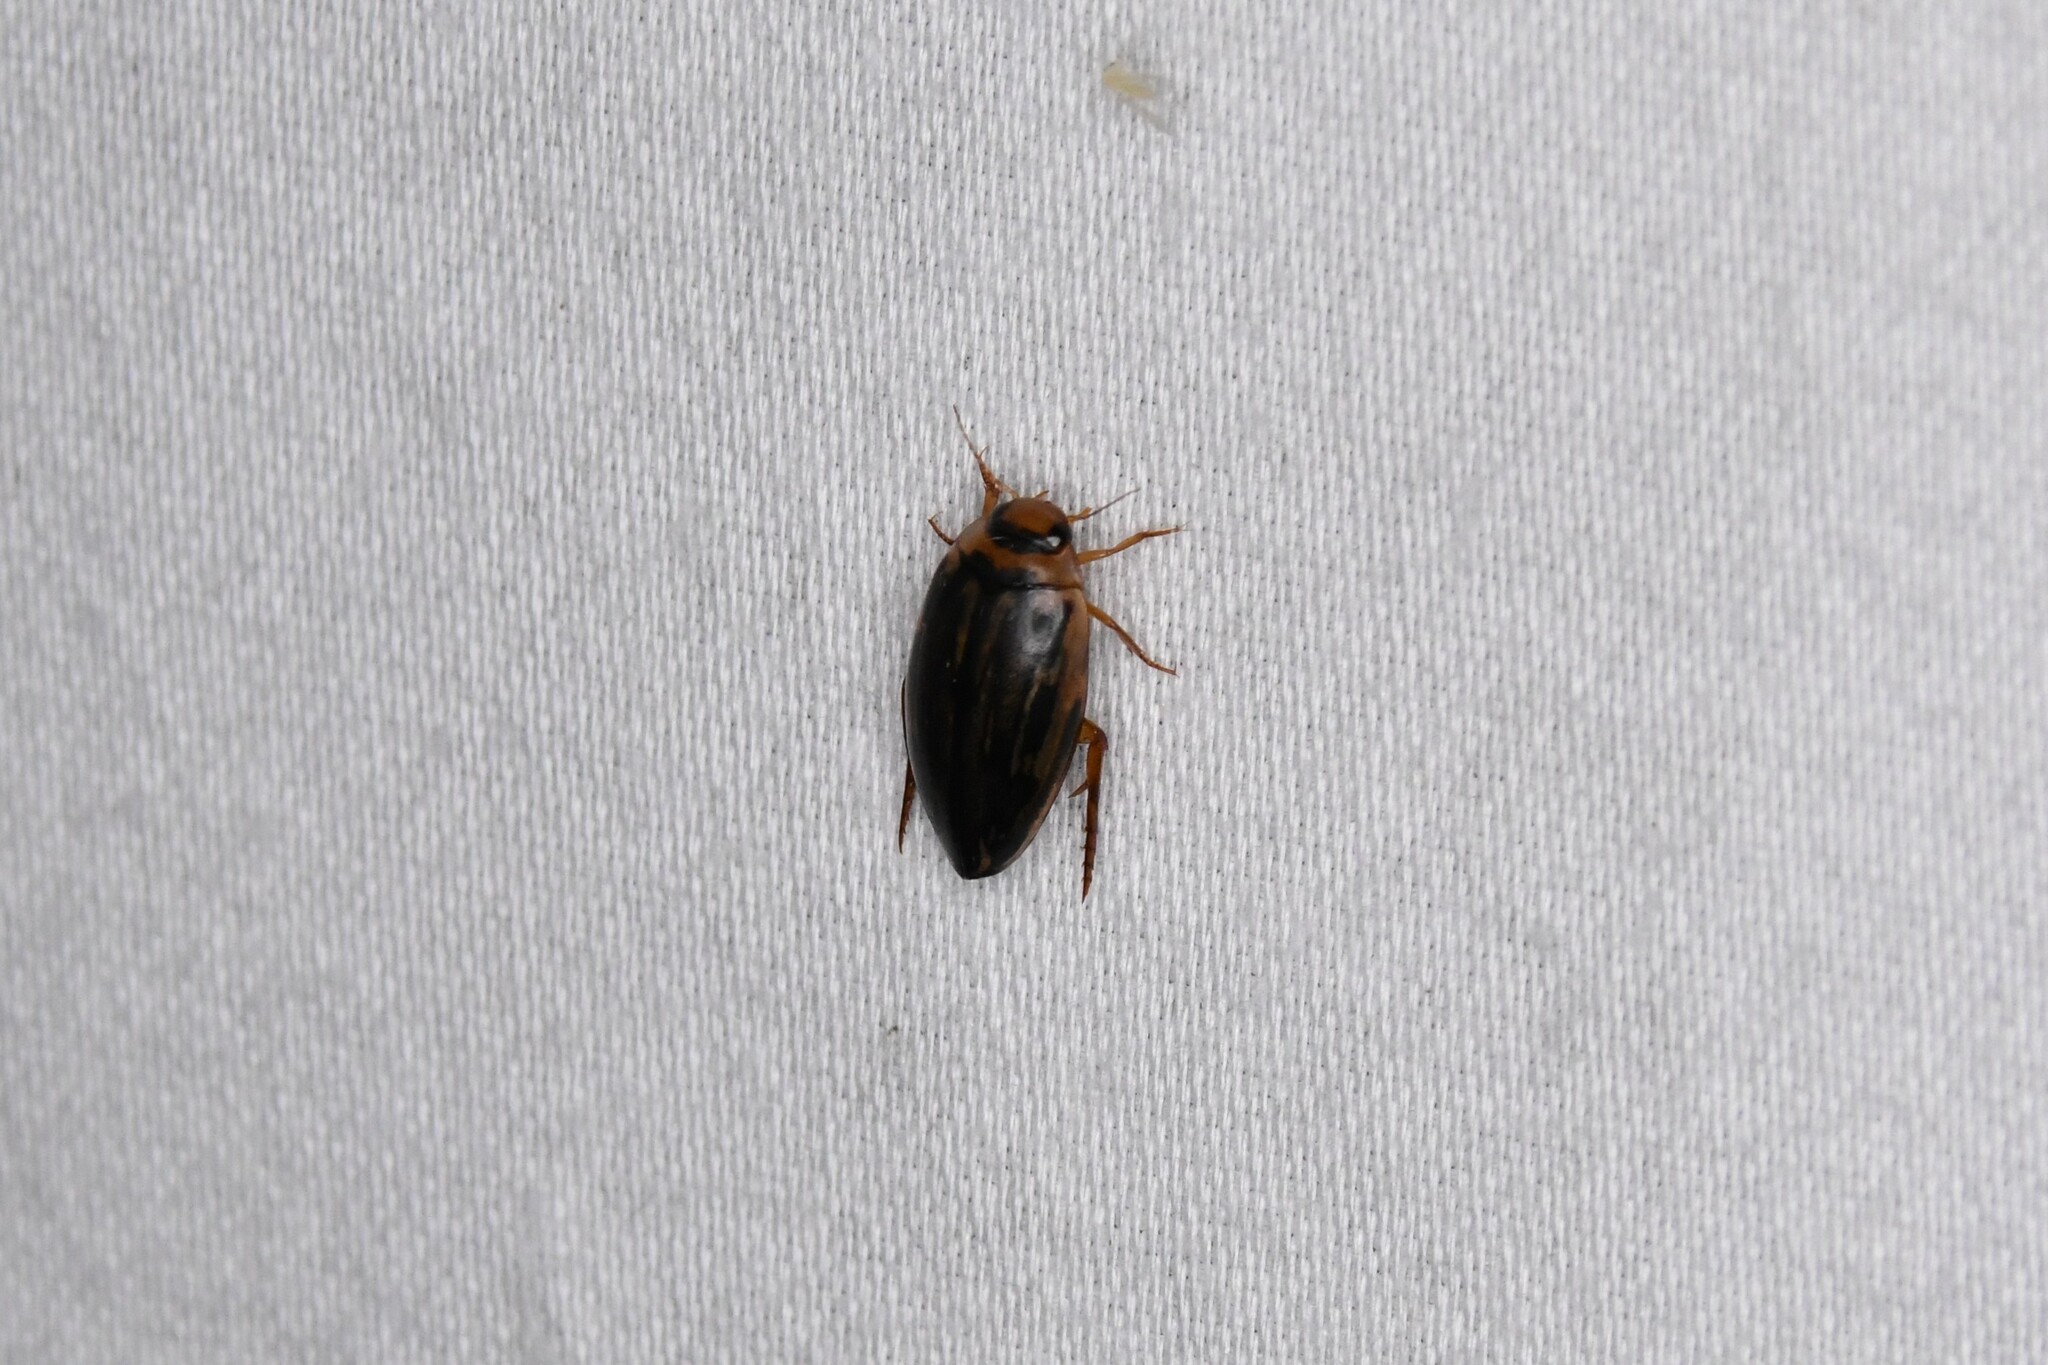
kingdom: Animalia
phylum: Arthropoda
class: Insecta
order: Coleoptera
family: Dytiscidae
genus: Coptotomus
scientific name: Coptotomus longulus
